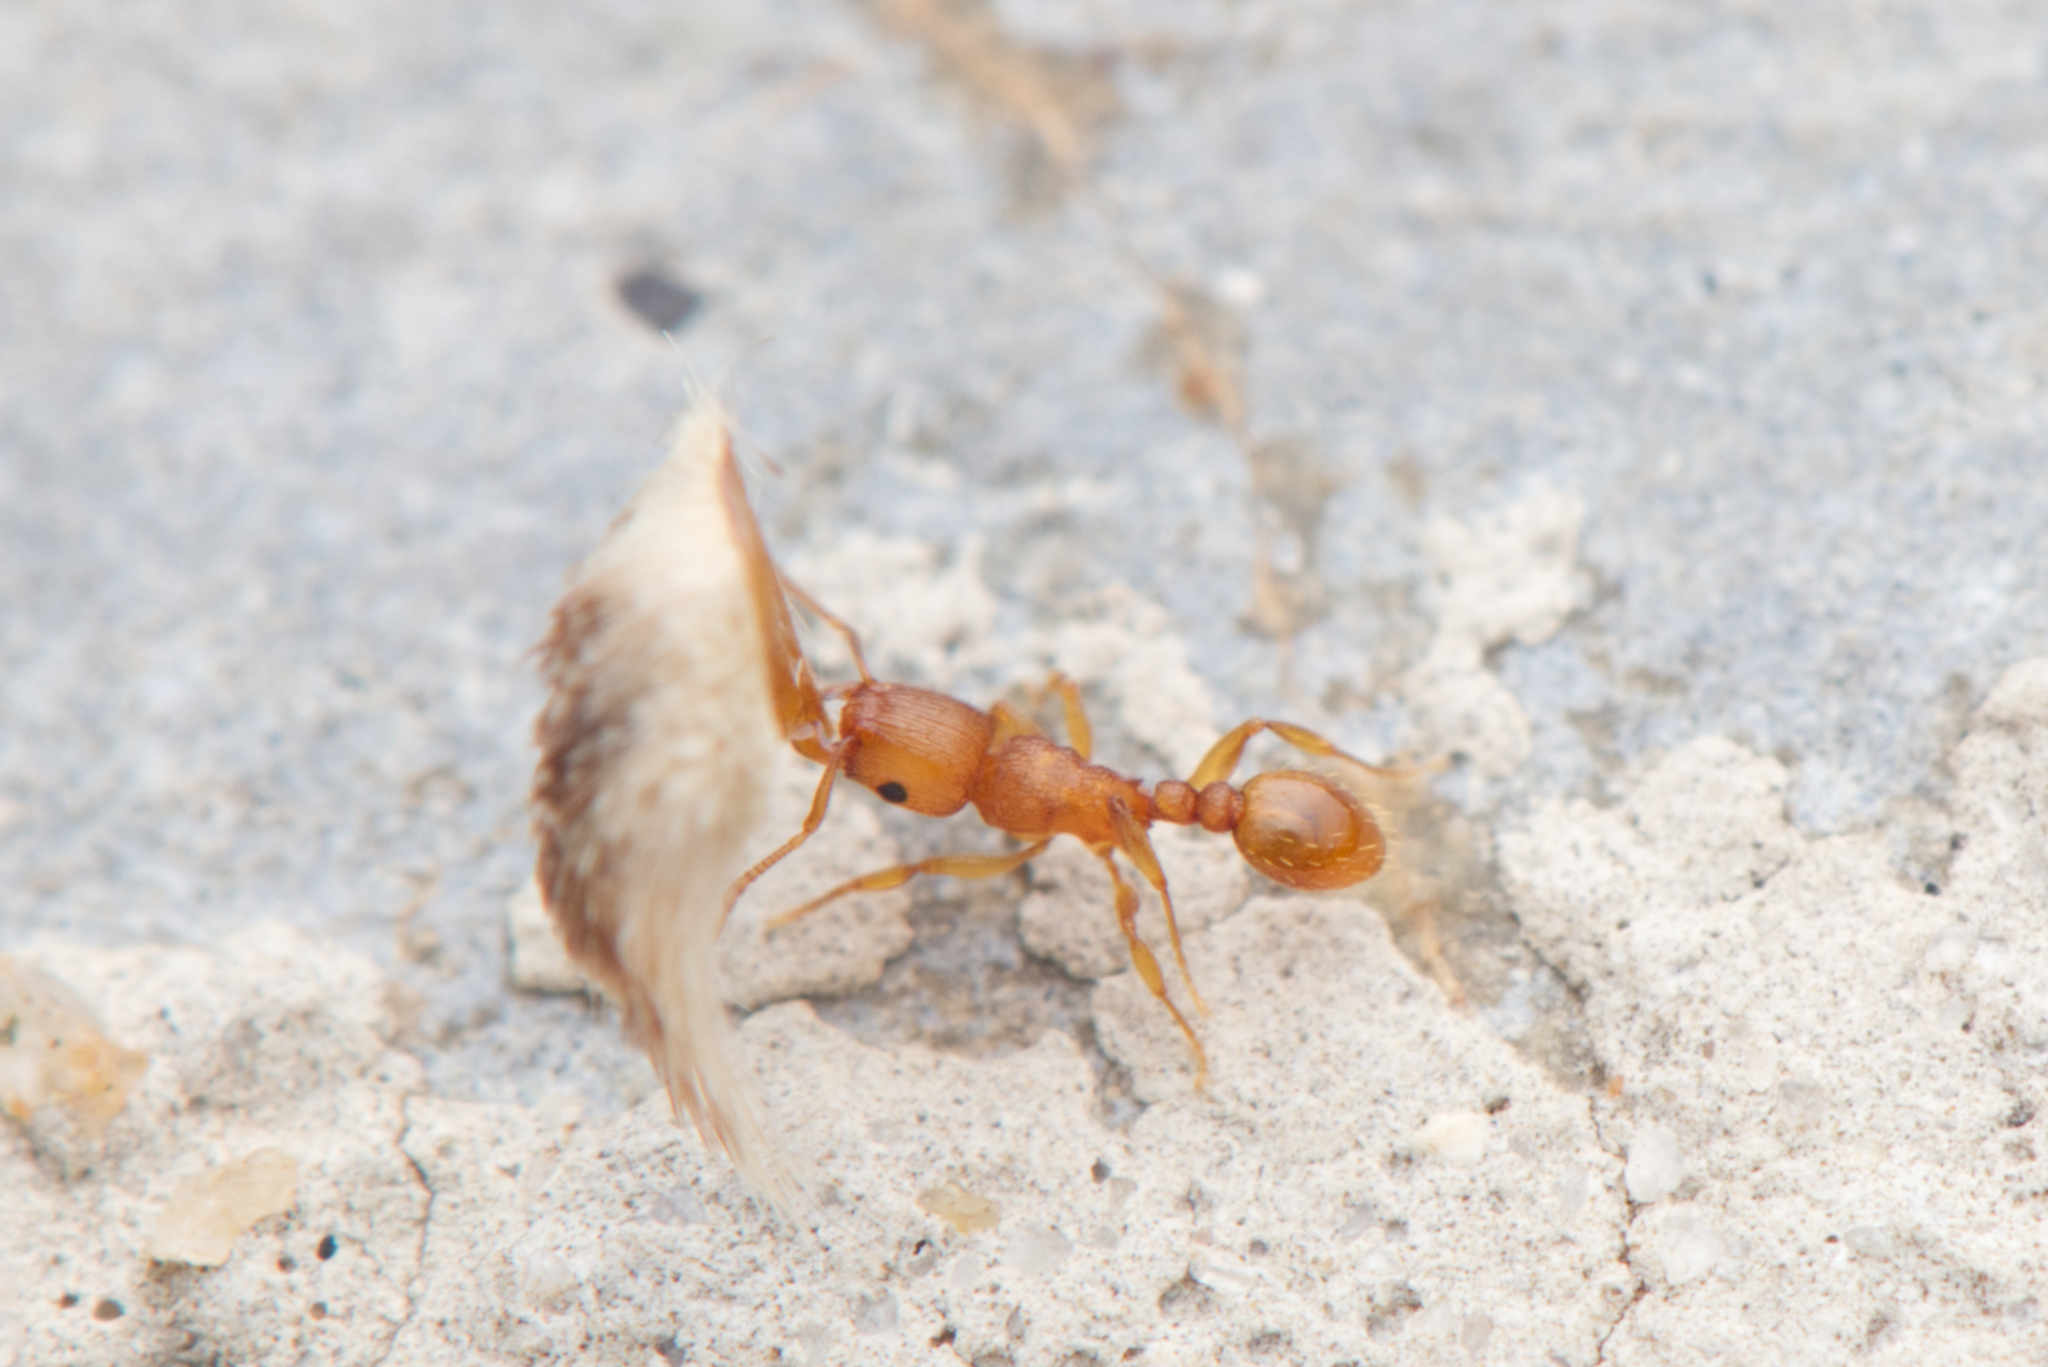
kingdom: Animalia
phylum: Arthropoda
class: Insecta
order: Hymenoptera
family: Formicidae
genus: Tetramorium
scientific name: Tetramorium simillimum
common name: Ant
